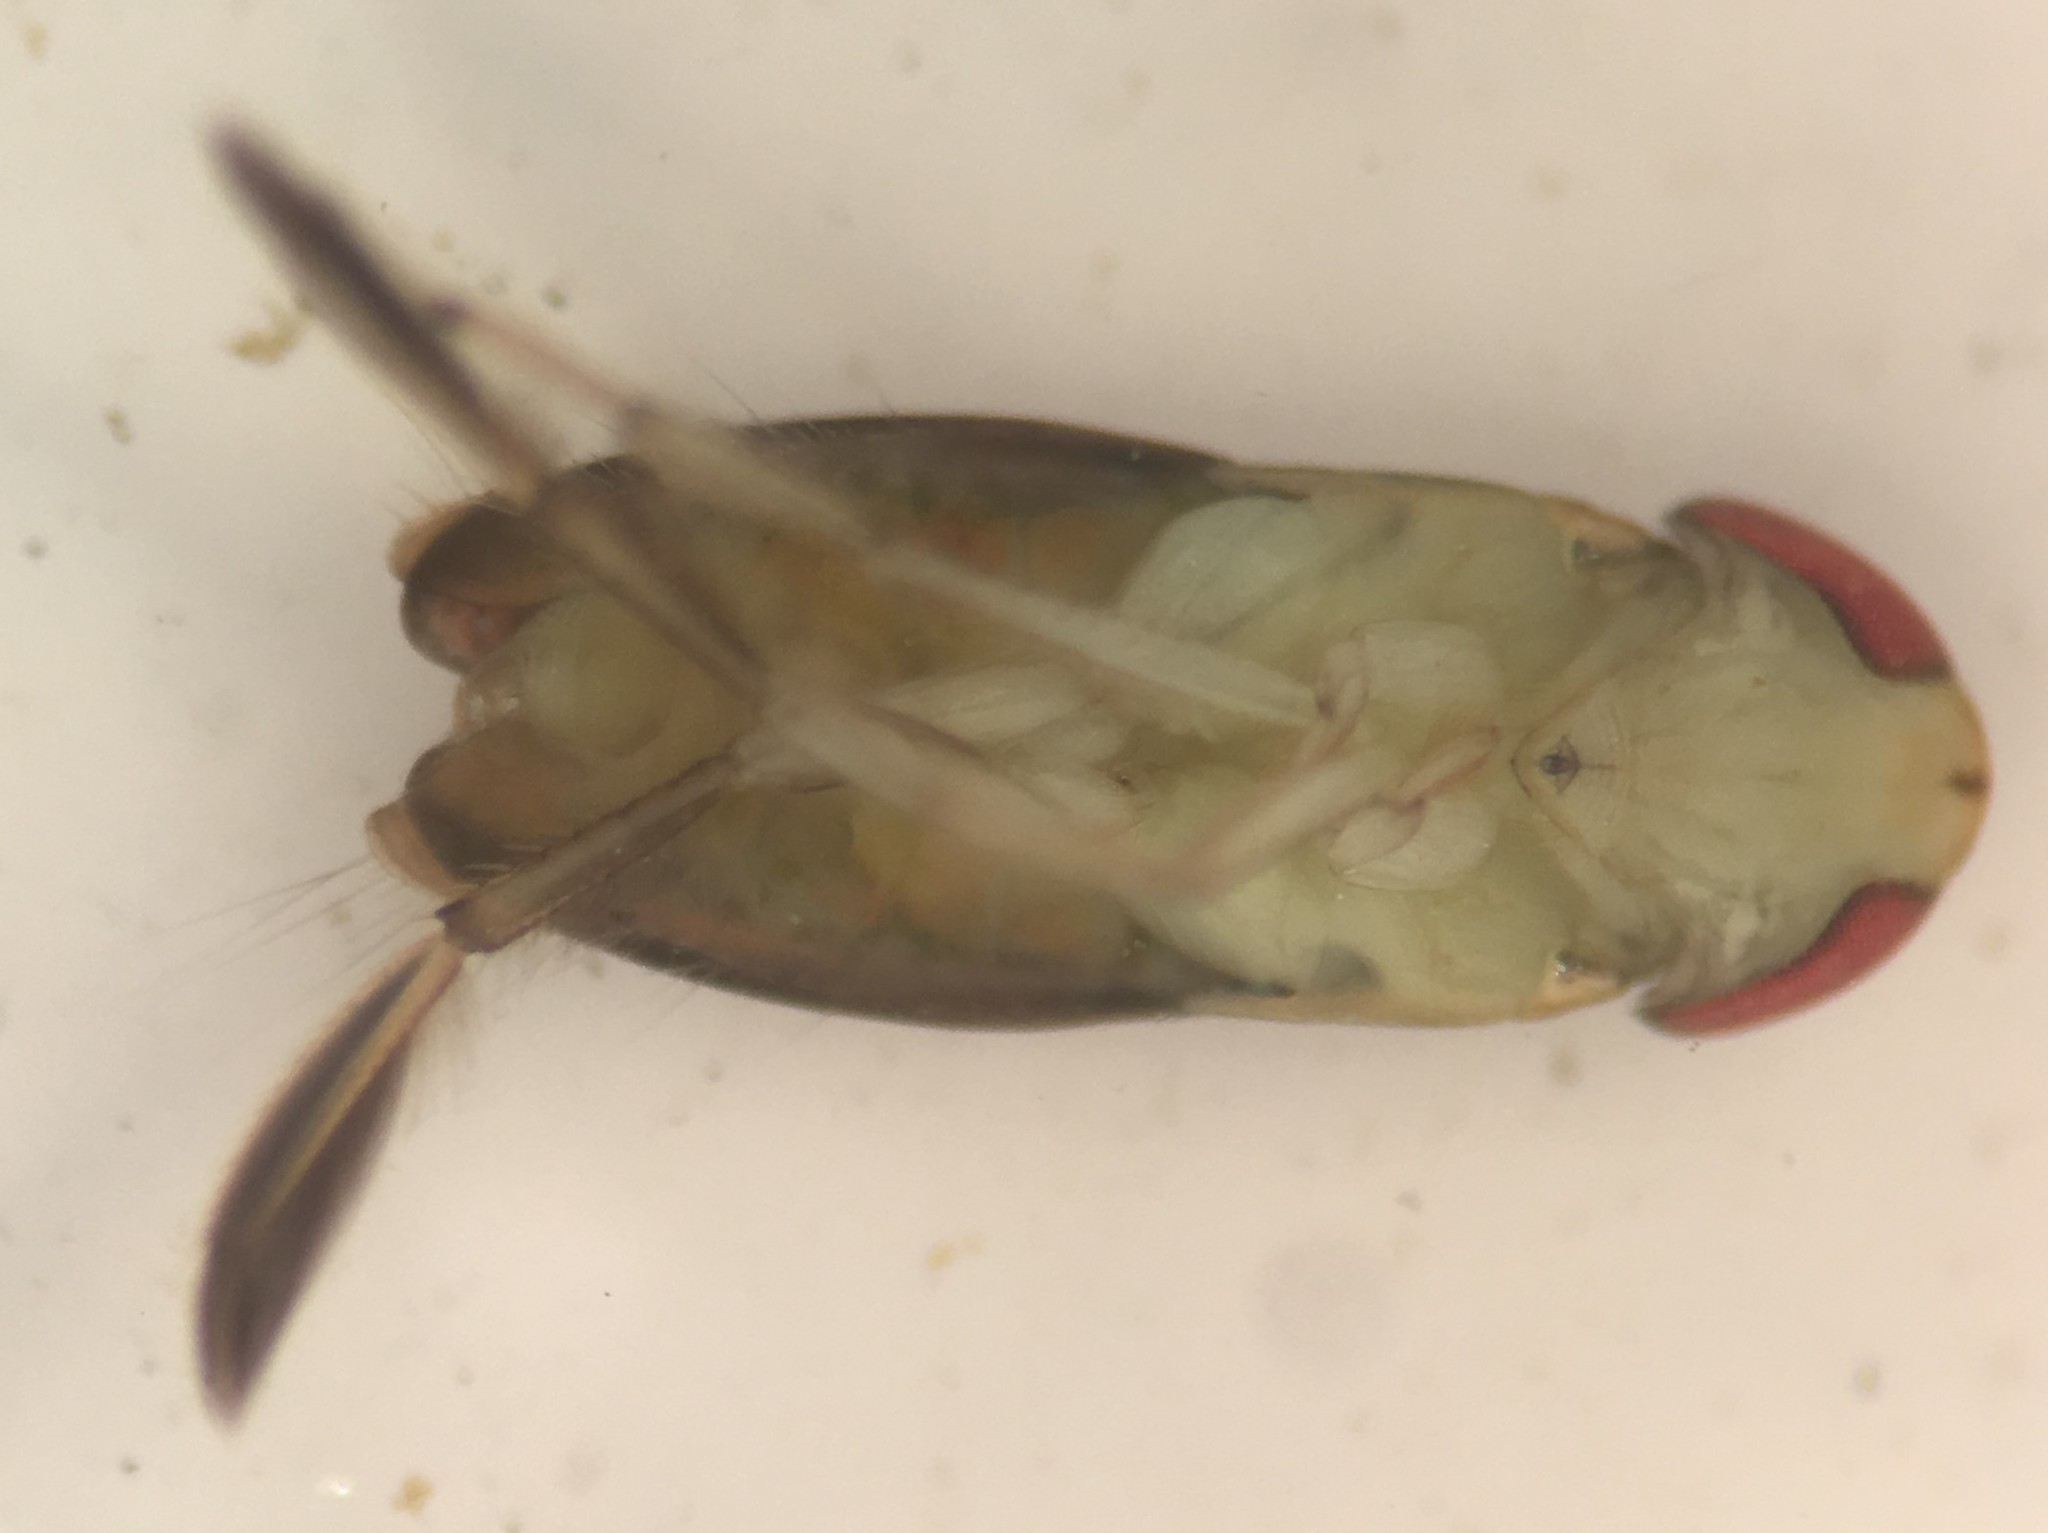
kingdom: Animalia
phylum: Arthropoda
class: Insecta
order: Hemiptera
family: Corixidae
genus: Trichocorixa
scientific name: Trichocorixa macroceps
